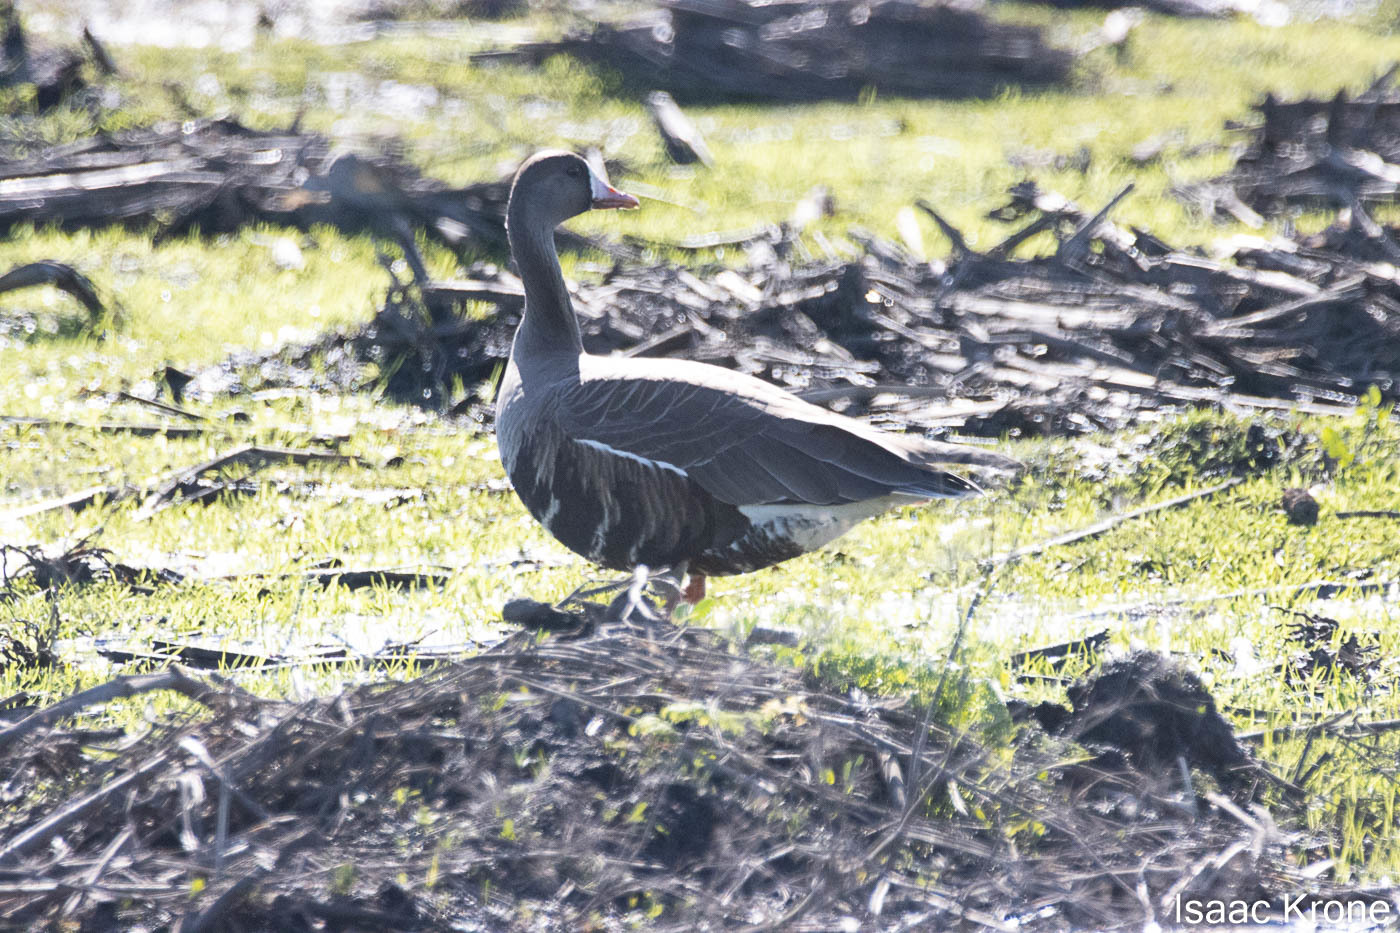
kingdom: Animalia
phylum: Chordata
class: Aves
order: Anseriformes
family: Anatidae
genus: Anser
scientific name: Anser albifrons
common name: Greater white-fronted goose
